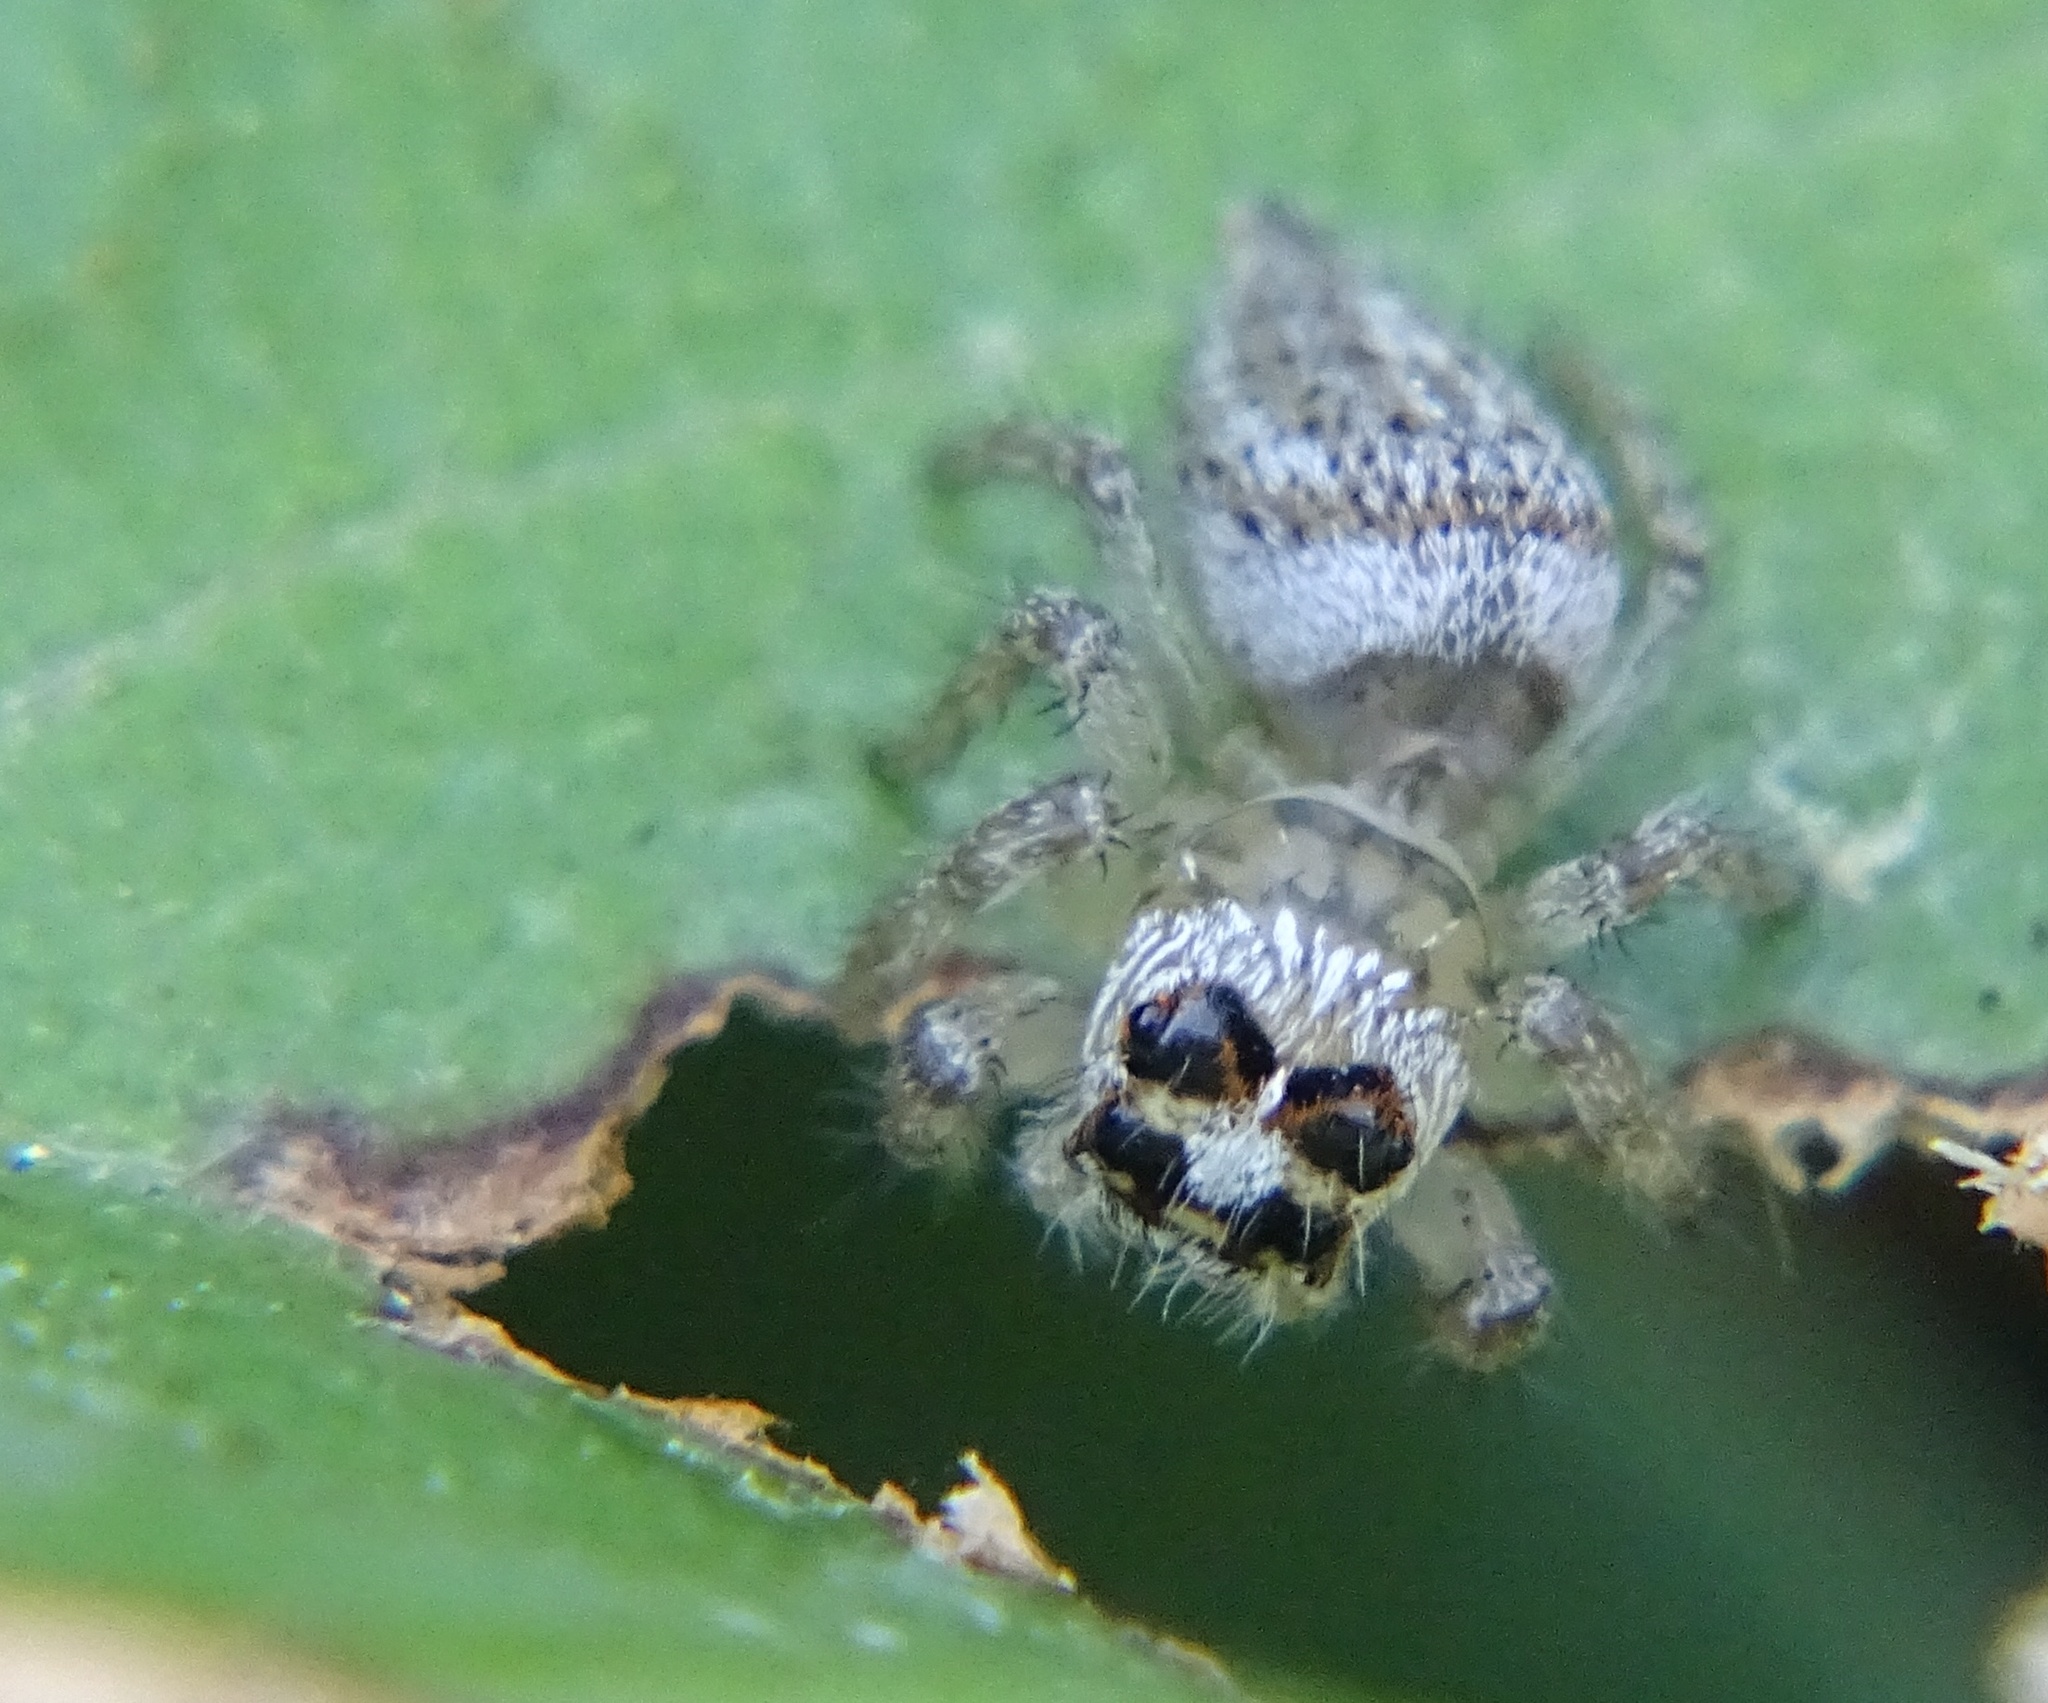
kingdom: Animalia
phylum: Arthropoda
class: Arachnida
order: Araneae
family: Salticidae
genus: Colonus
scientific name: Colonus hesperus
